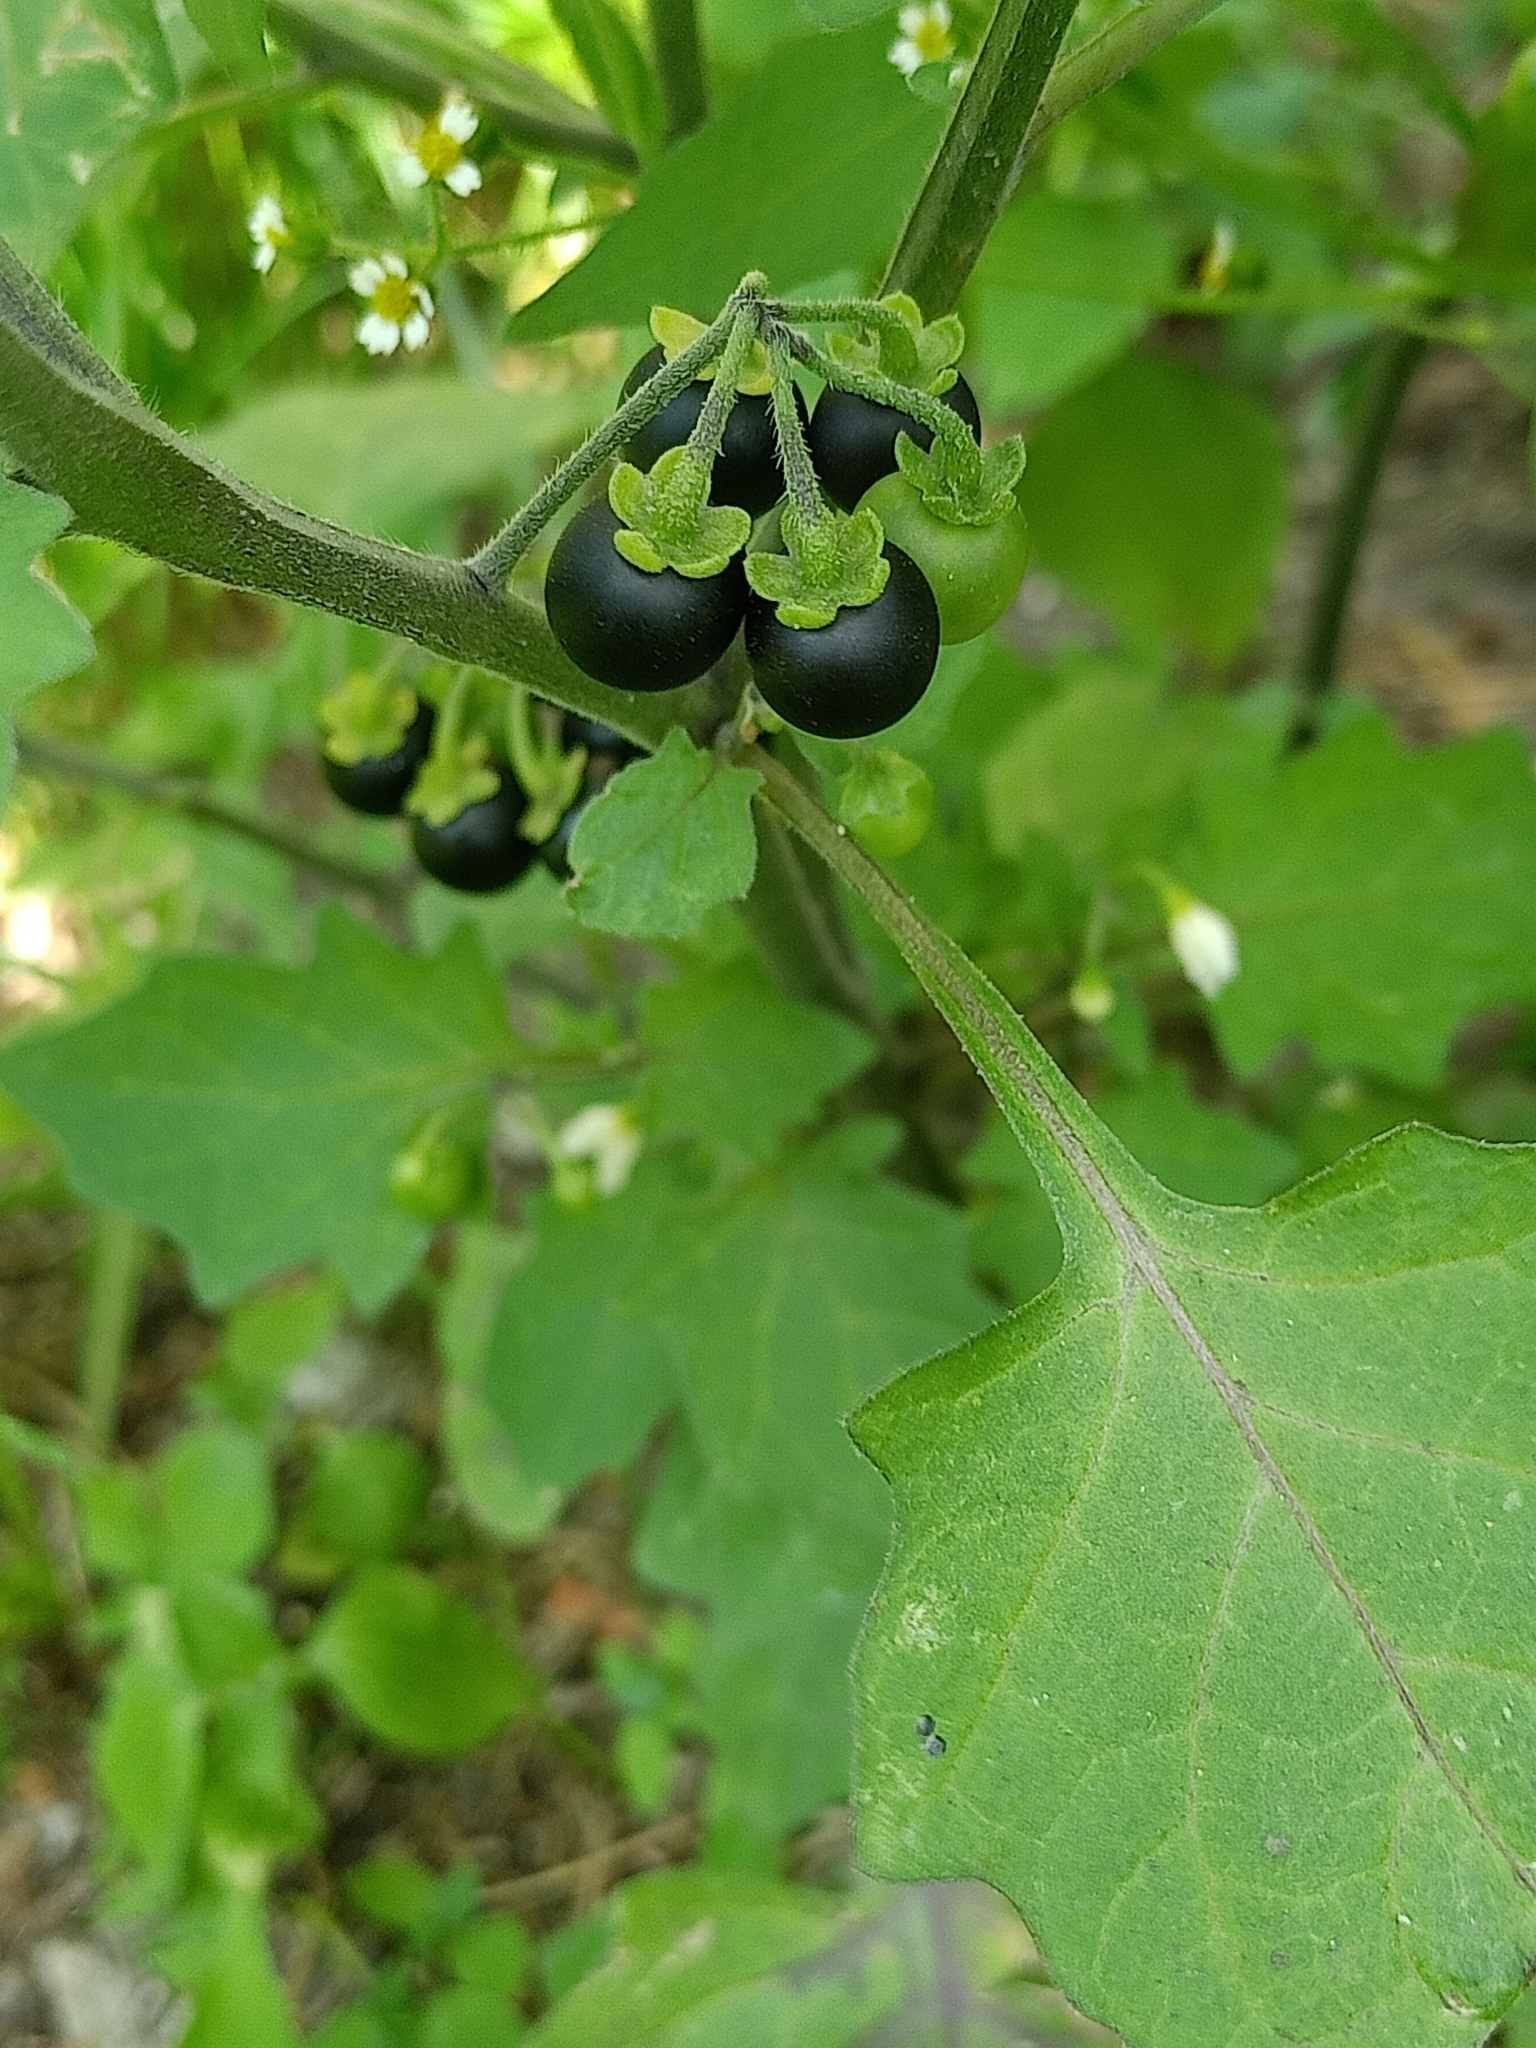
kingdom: Plantae
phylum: Tracheophyta
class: Magnoliopsida
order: Solanales
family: Solanaceae
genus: Solanum
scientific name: Solanum nigrum
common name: Black nightshade
